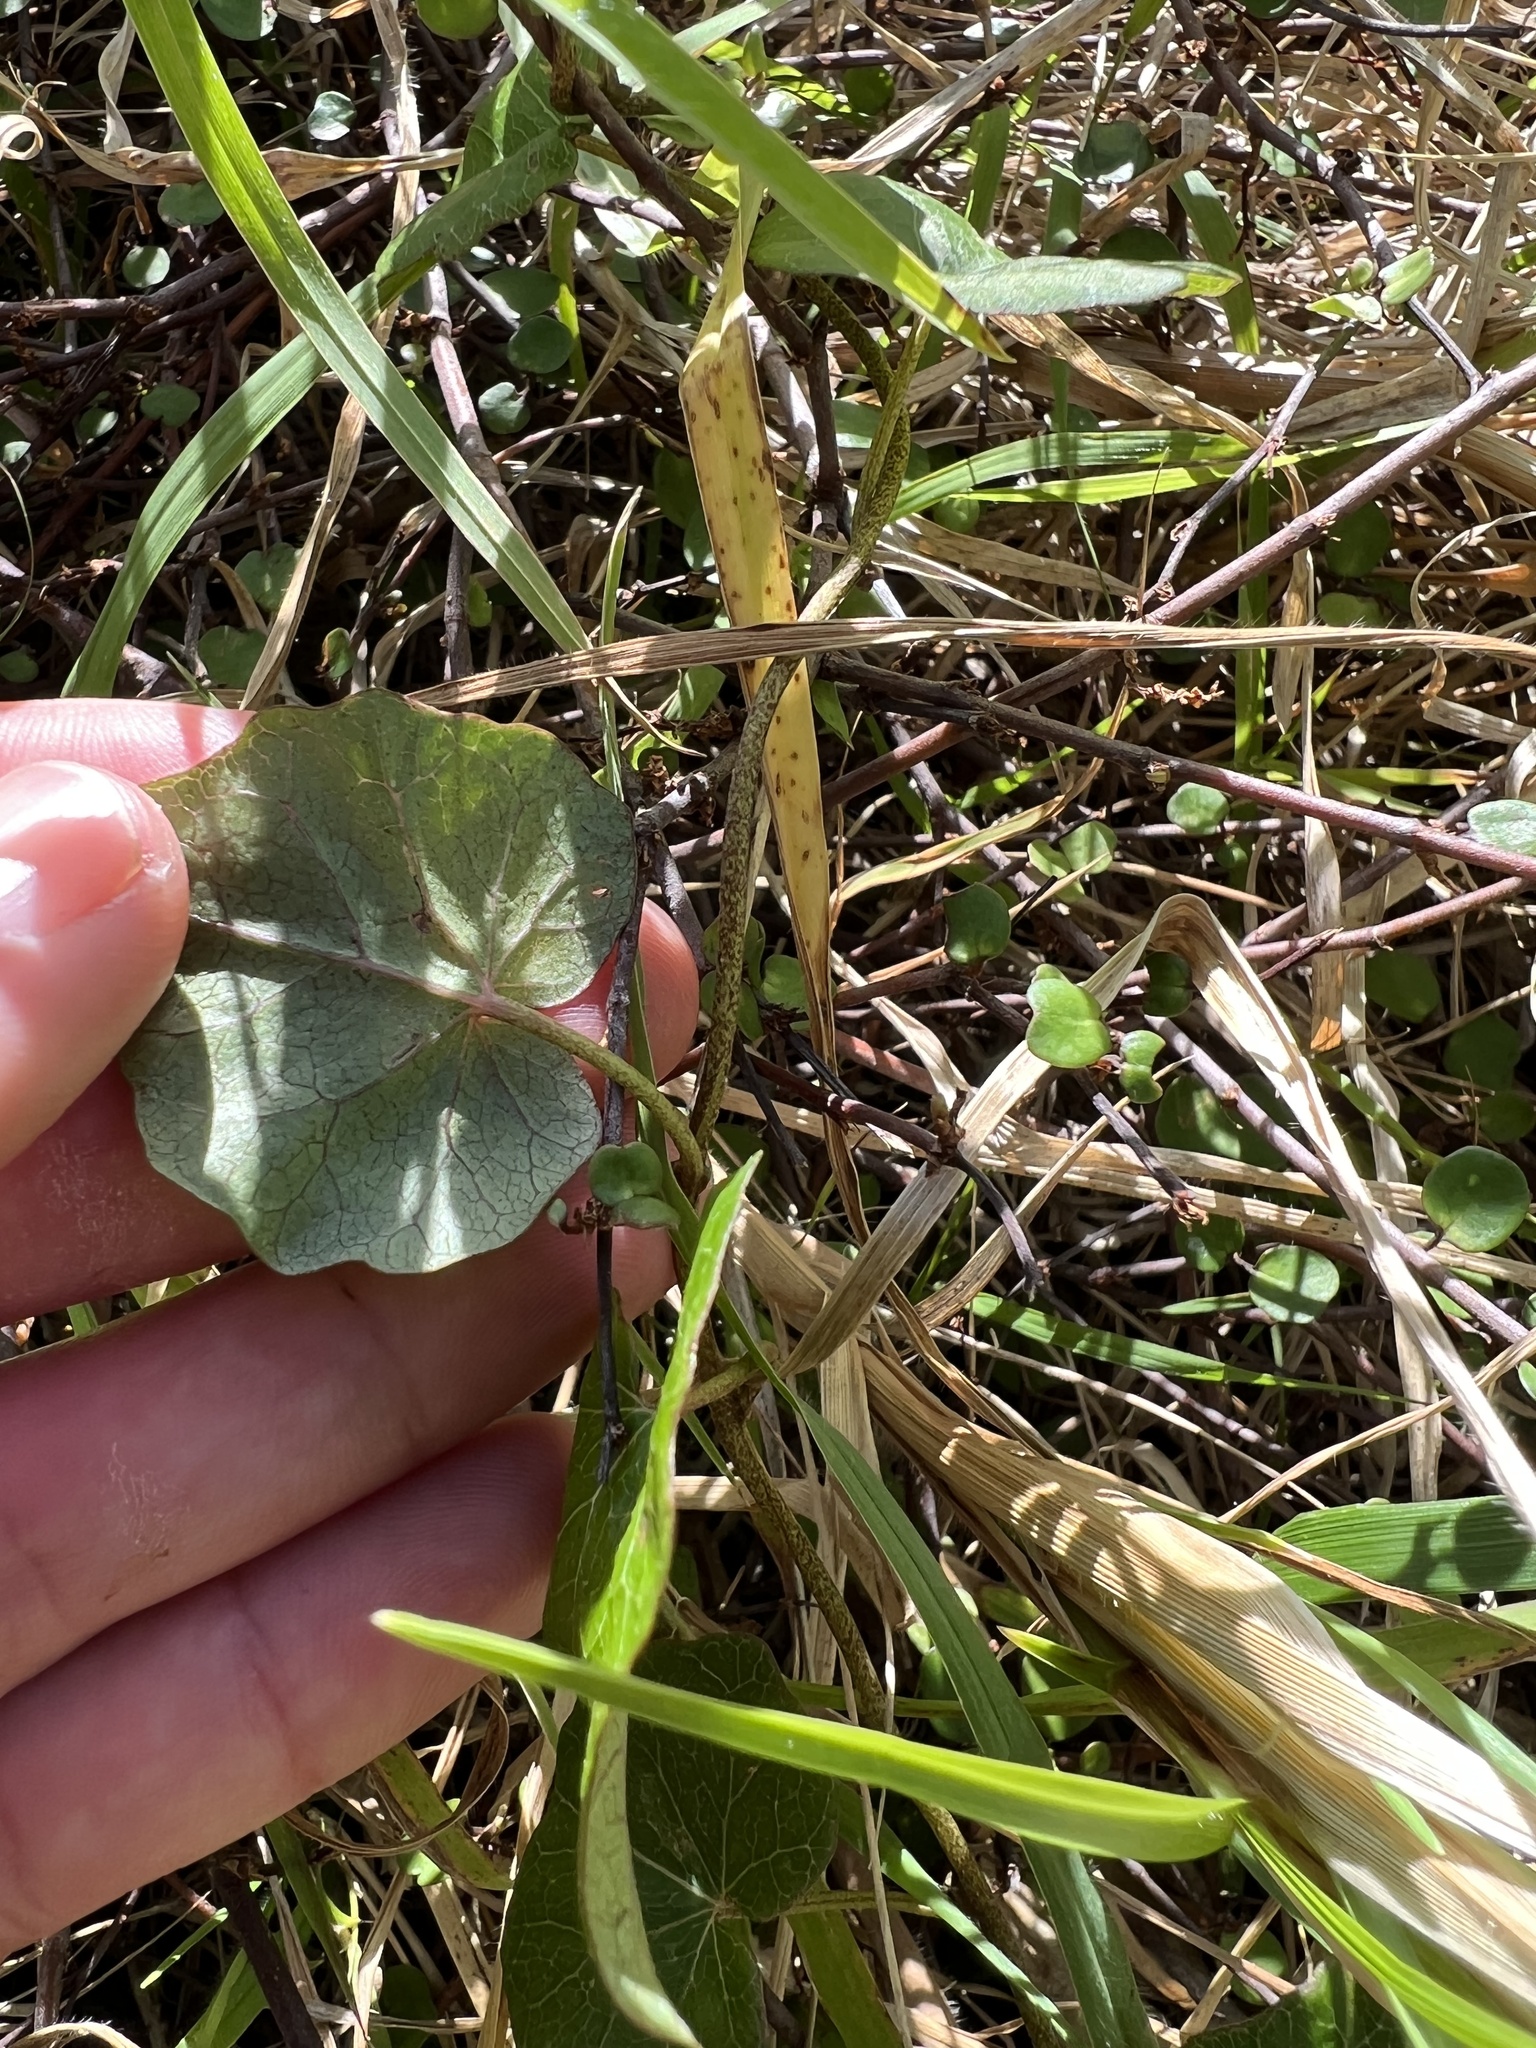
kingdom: Plantae
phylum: Tracheophyta
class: Magnoliopsida
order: Solanales
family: Convolvulaceae
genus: Calystegia
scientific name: Calystegia tuguriorum
